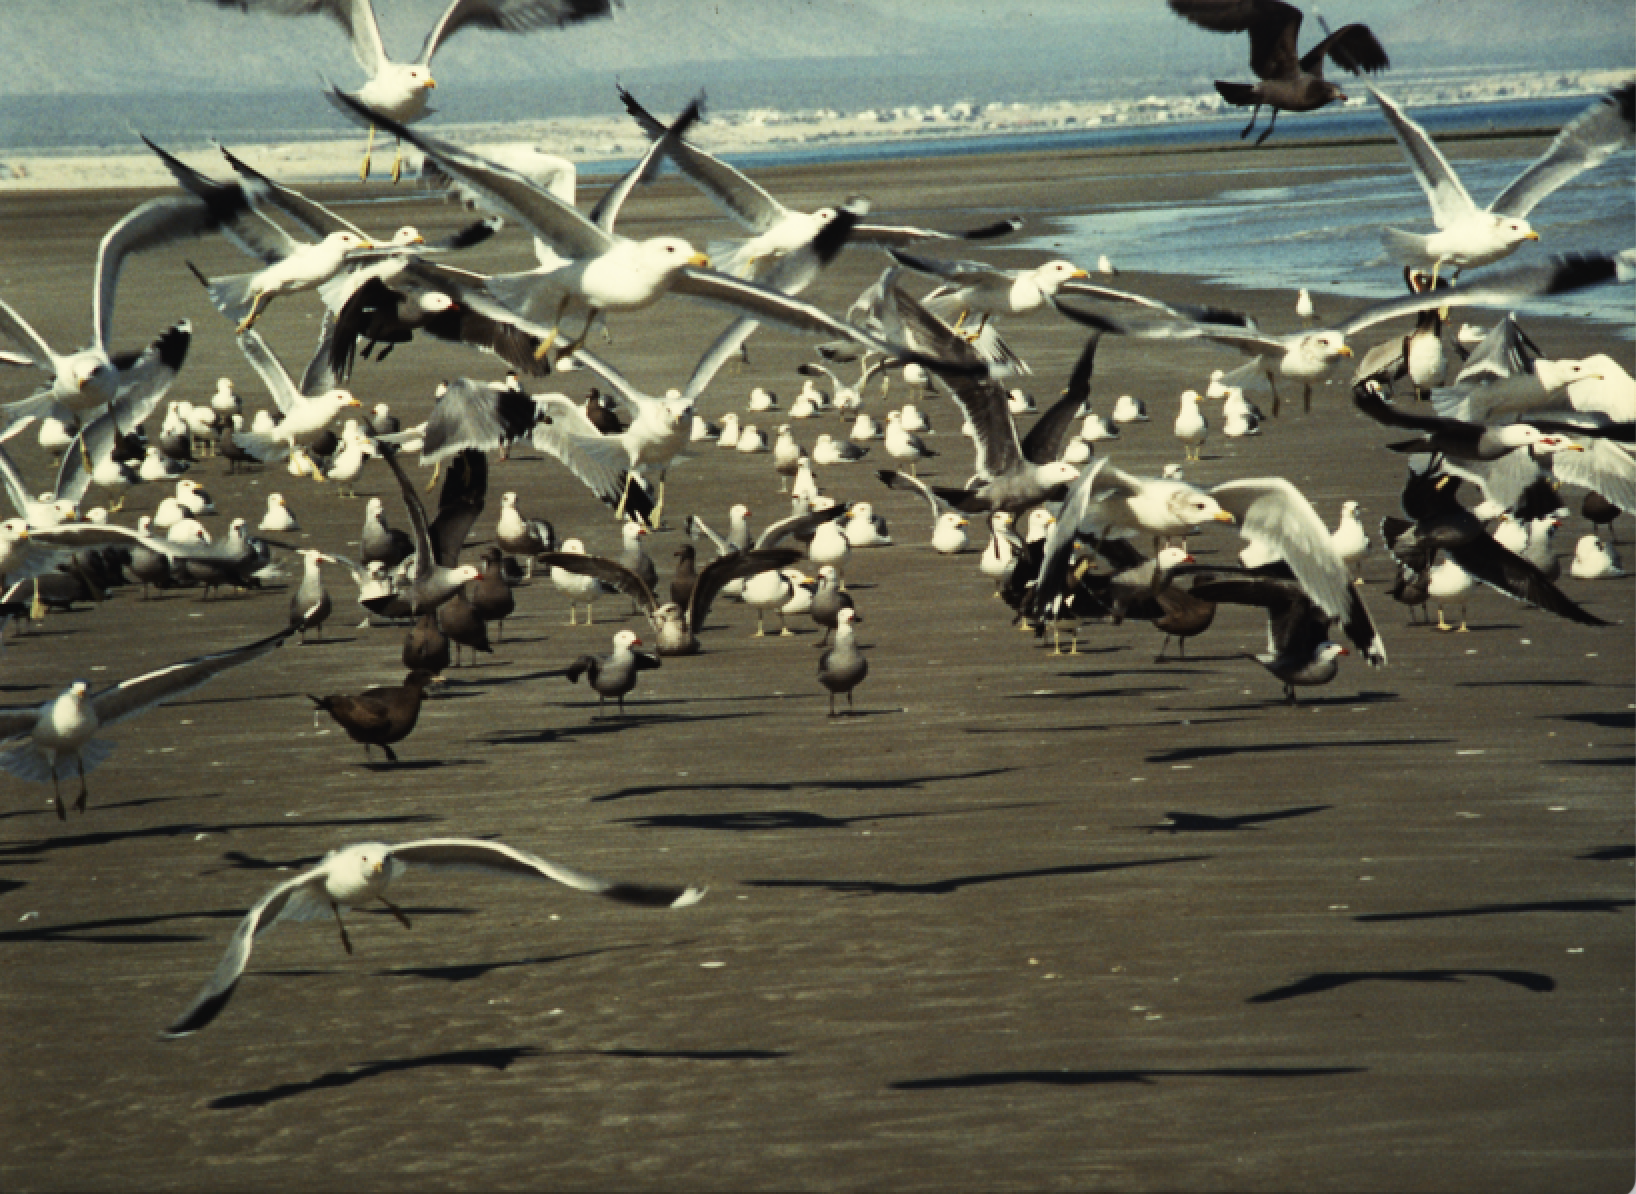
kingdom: Animalia
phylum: Chordata
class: Aves
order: Charadriiformes
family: Laridae
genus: Larus
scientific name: Larus heermanni
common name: Heermann's gull
